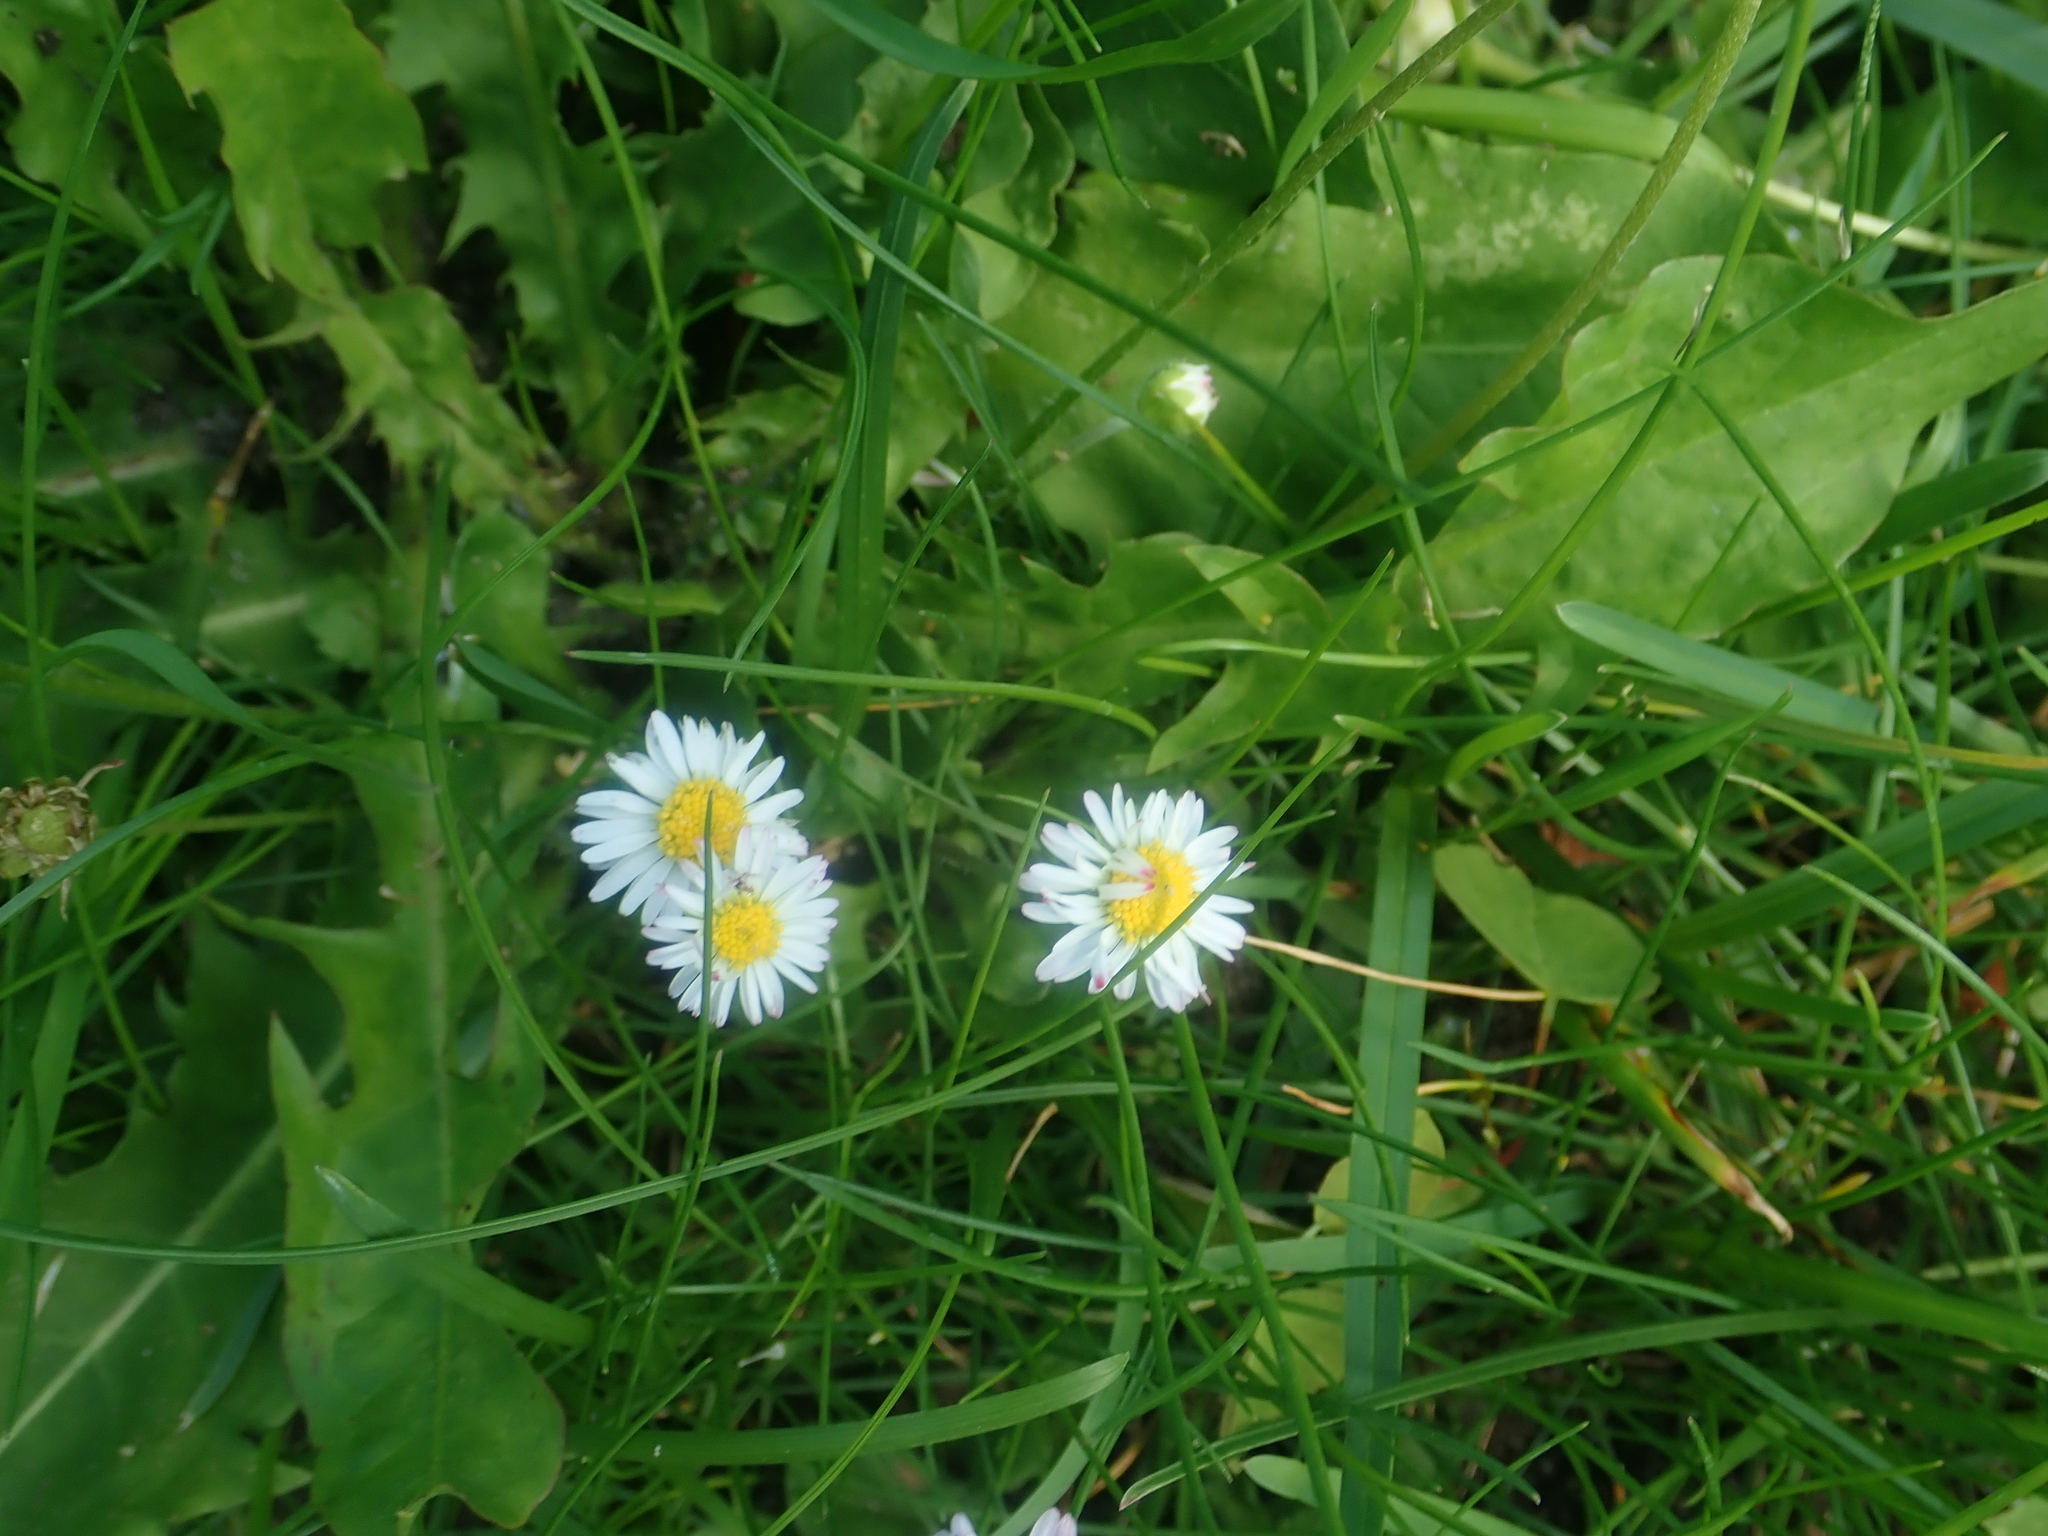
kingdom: Plantae
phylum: Tracheophyta
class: Magnoliopsida
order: Asterales
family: Asteraceae
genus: Bellis
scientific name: Bellis perennis
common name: Lawndaisy
